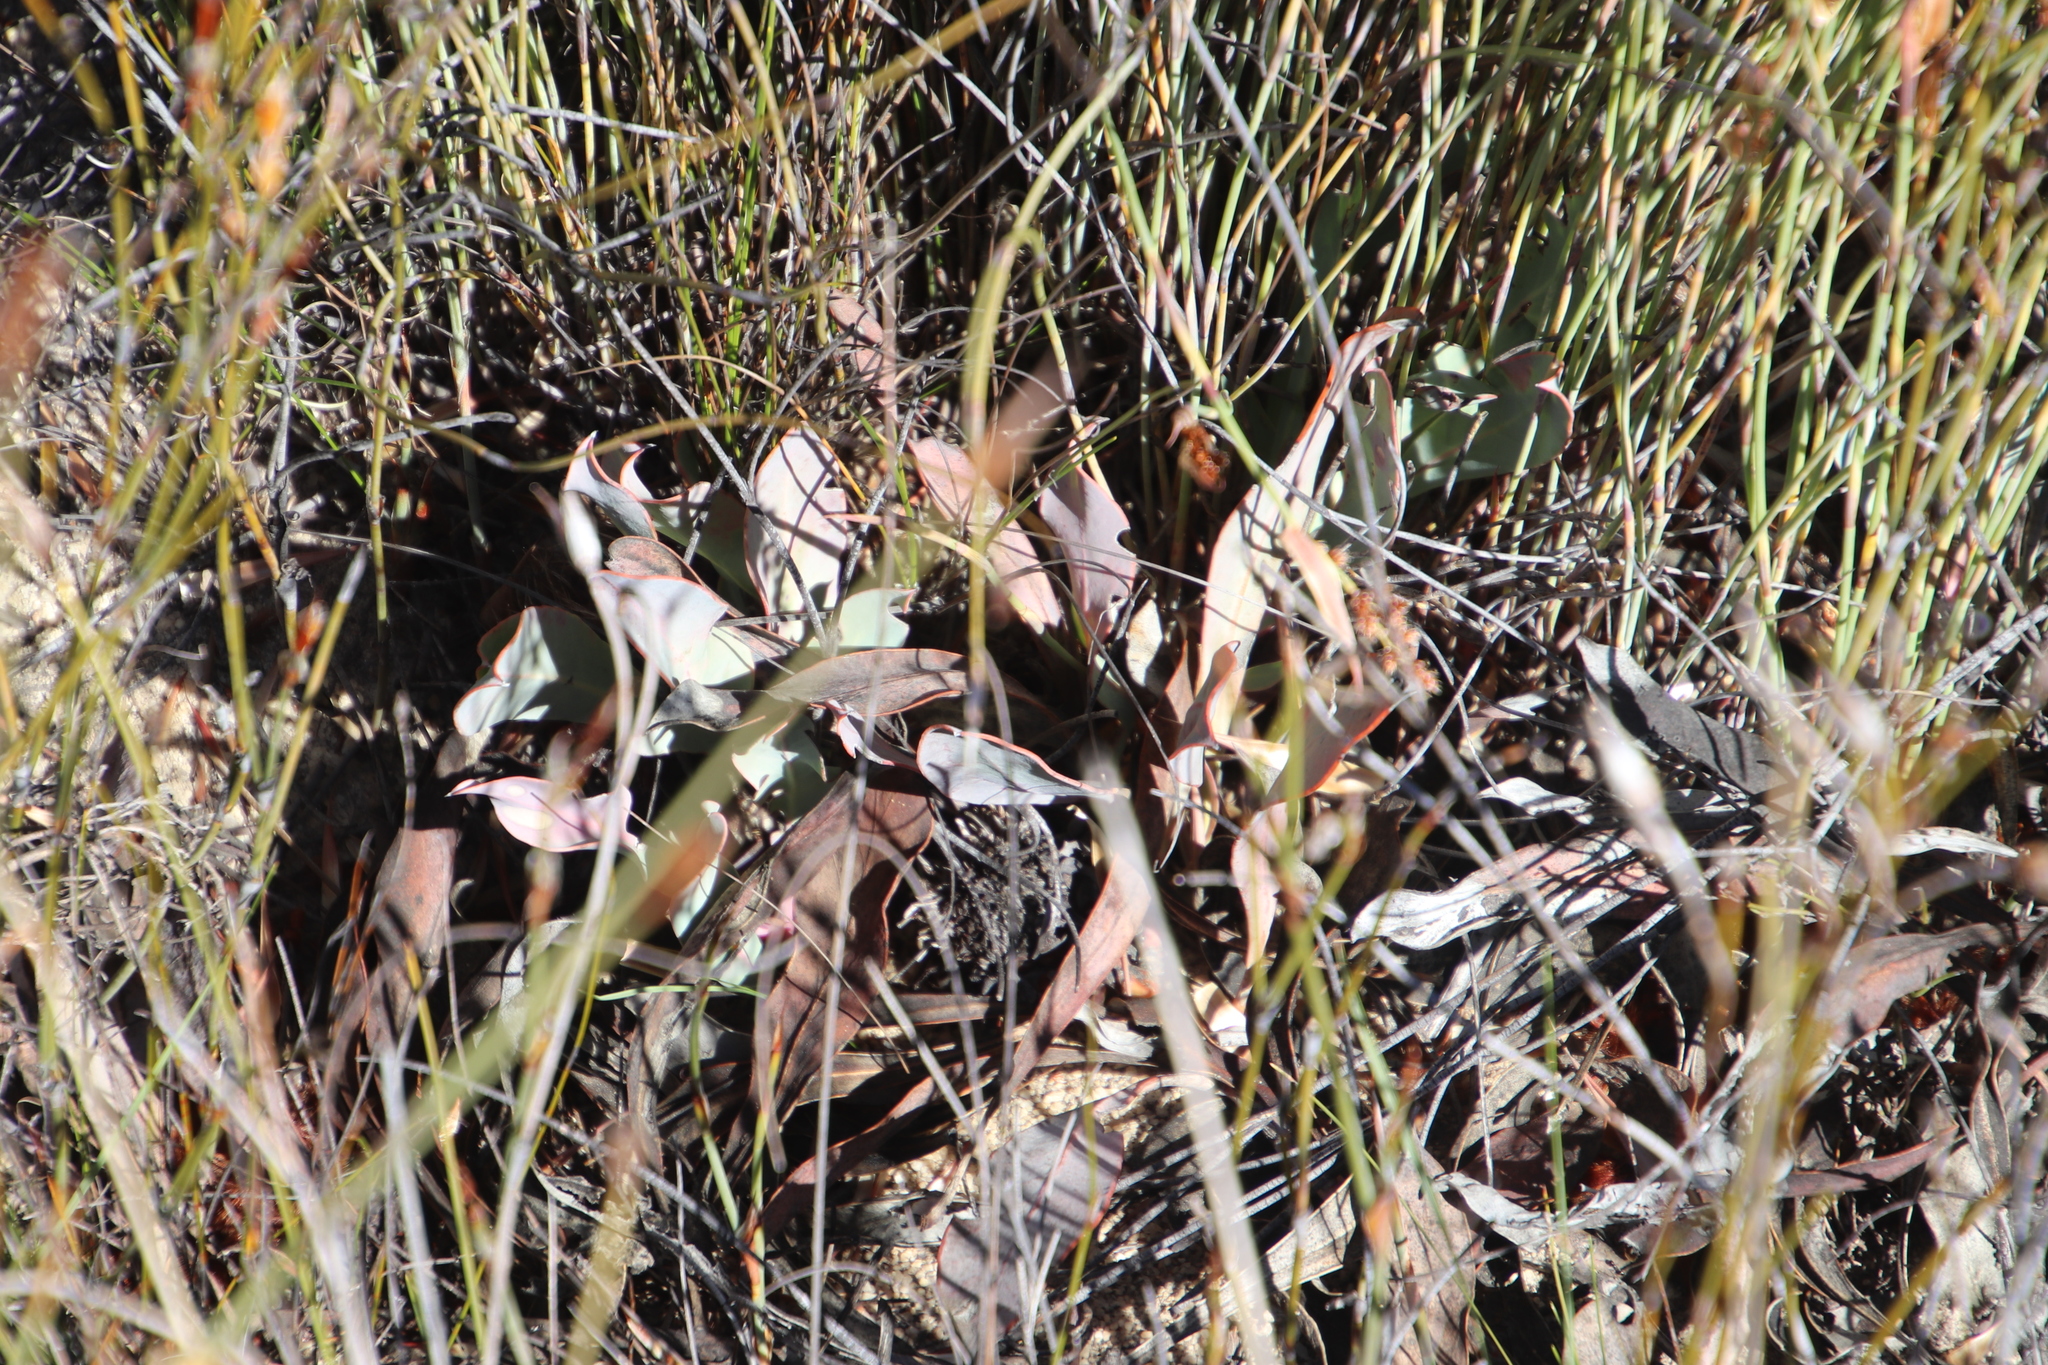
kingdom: Plantae
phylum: Tracheophyta
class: Magnoliopsida
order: Proteales
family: Proteaceae
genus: Protea
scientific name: Protea laevis
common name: Smooth-leaf sugarbush
